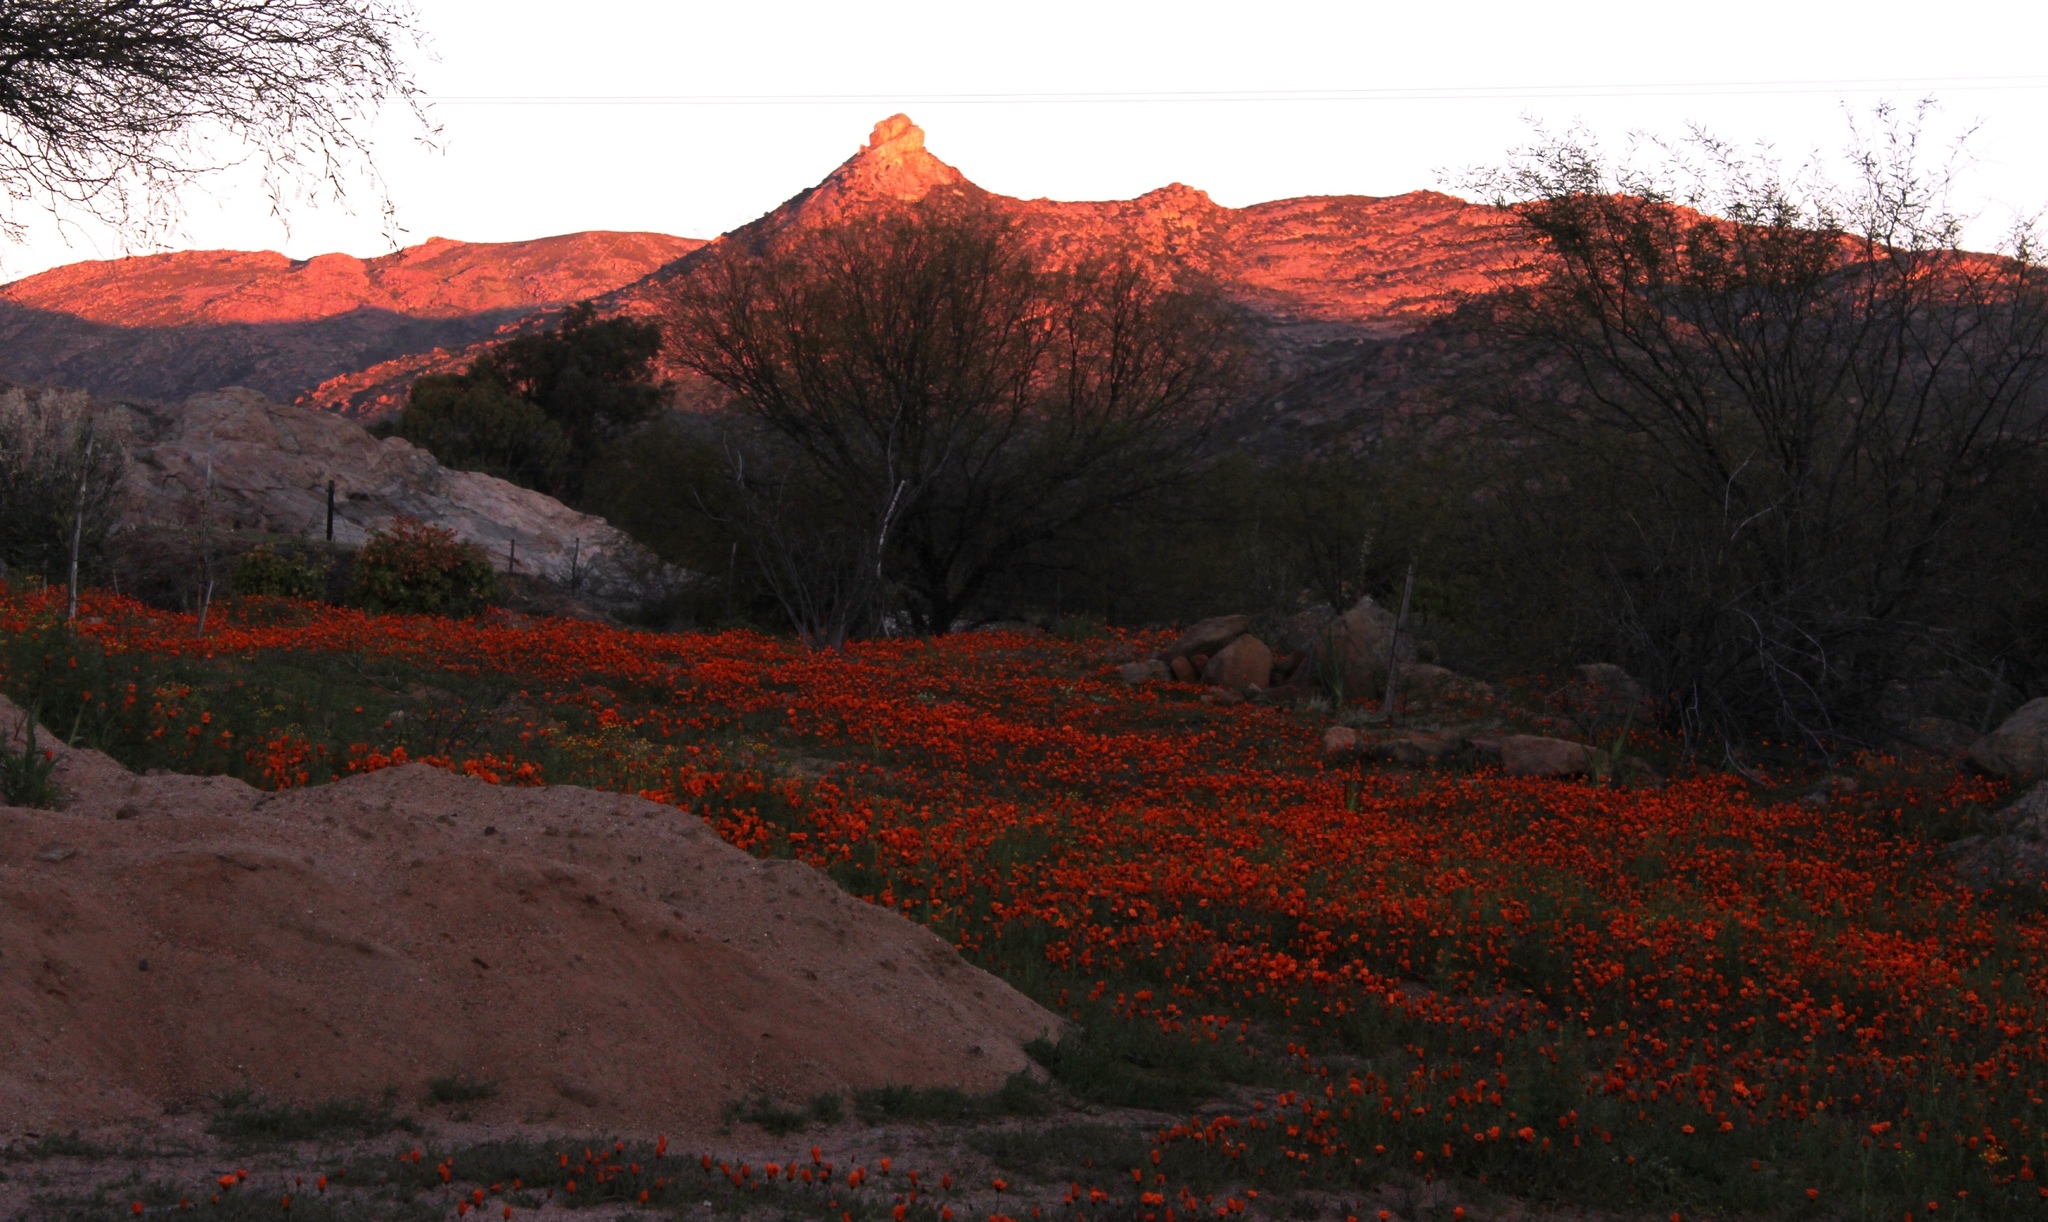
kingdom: Plantae
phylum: Tracheophyta
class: Magnoliopsida
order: Asterales
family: Asteraceae
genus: Dimorphotheca
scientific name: Dimorphotheca sinuata
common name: Glandular cape marigold
